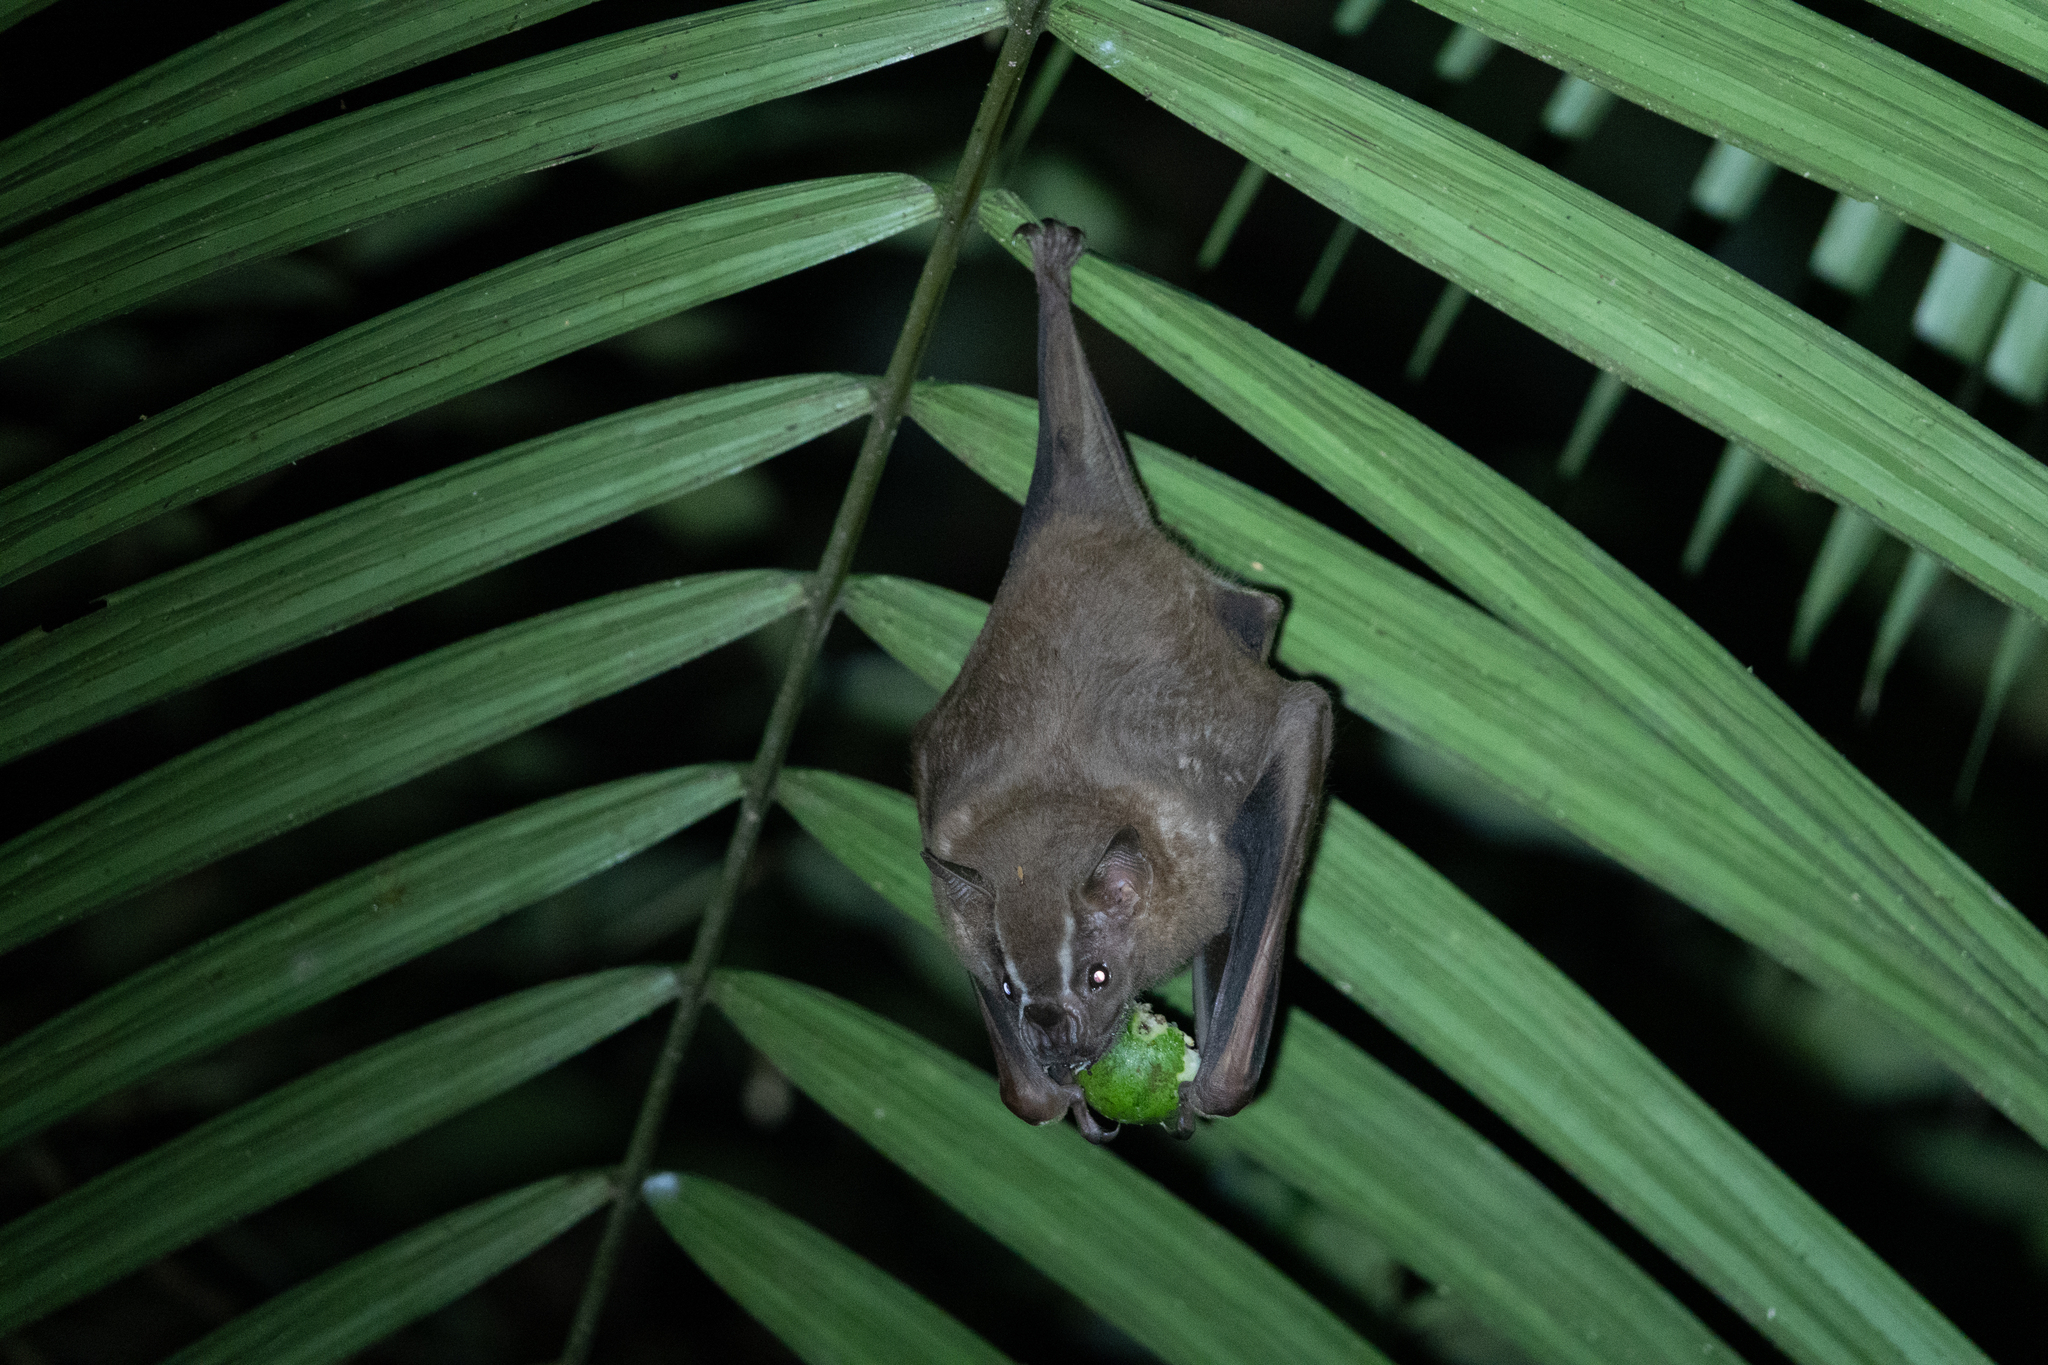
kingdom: Animalia
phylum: Chordata
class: Mammalia
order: Chiroptera
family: Phyllostomidae
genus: Artibeus
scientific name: Artibeus lituratus
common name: Great fruit-eating bat
